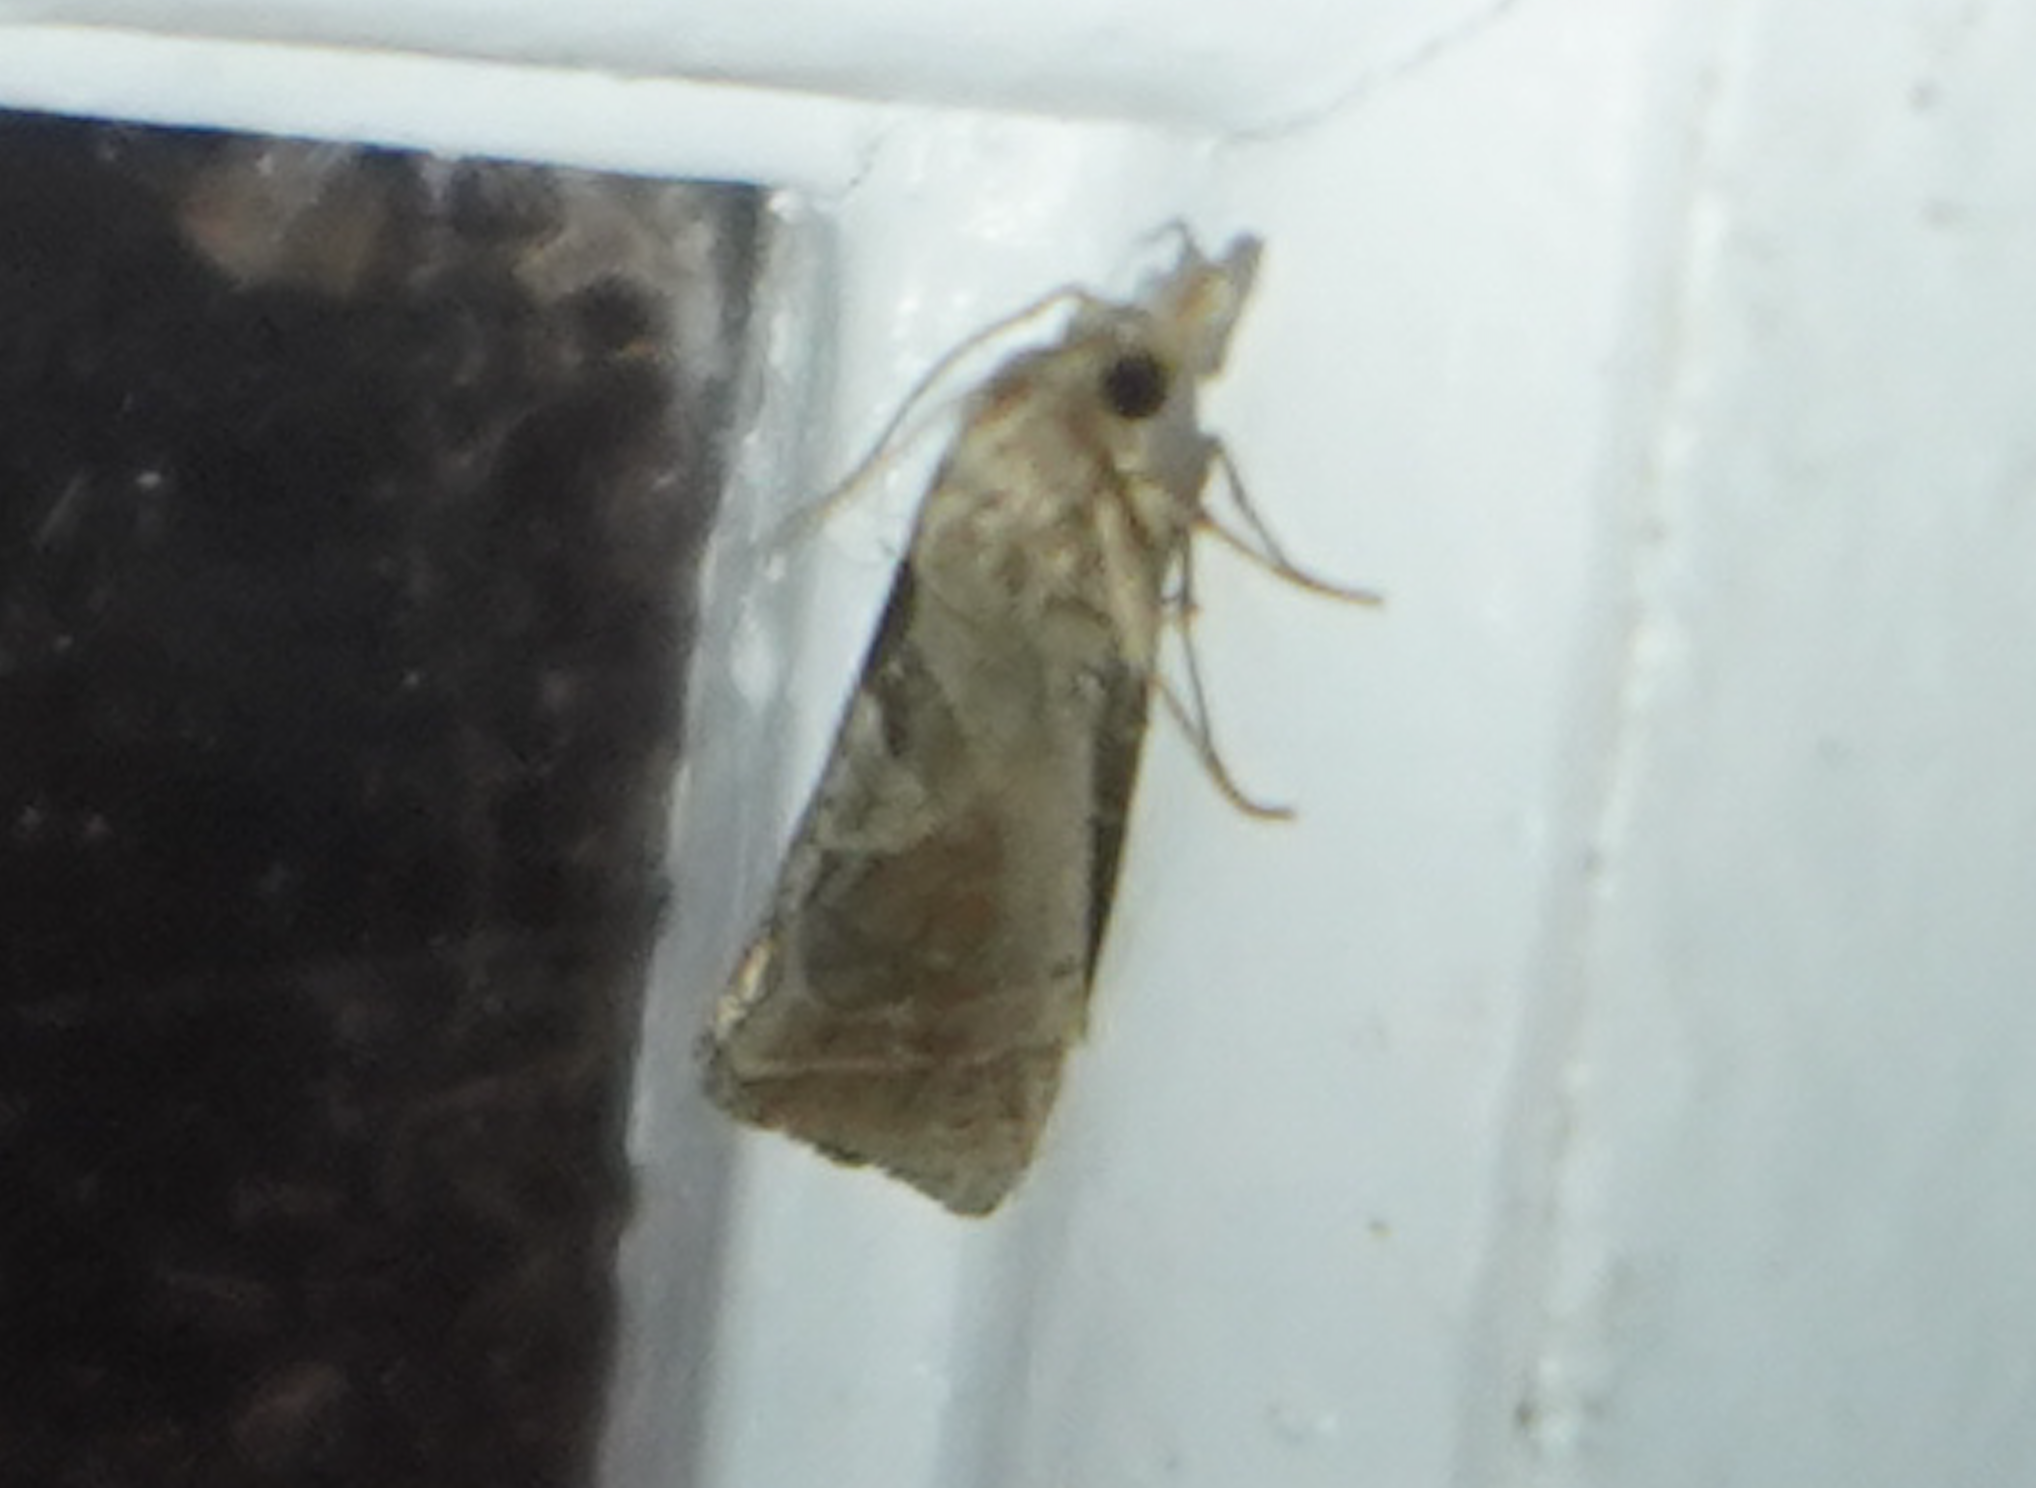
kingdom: Animalia
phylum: Arthropoda
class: Insecta
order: Lepidoptera
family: Tortricidae
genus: Pelochrista
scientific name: Pelochrista similiana
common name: Similar eucosma
